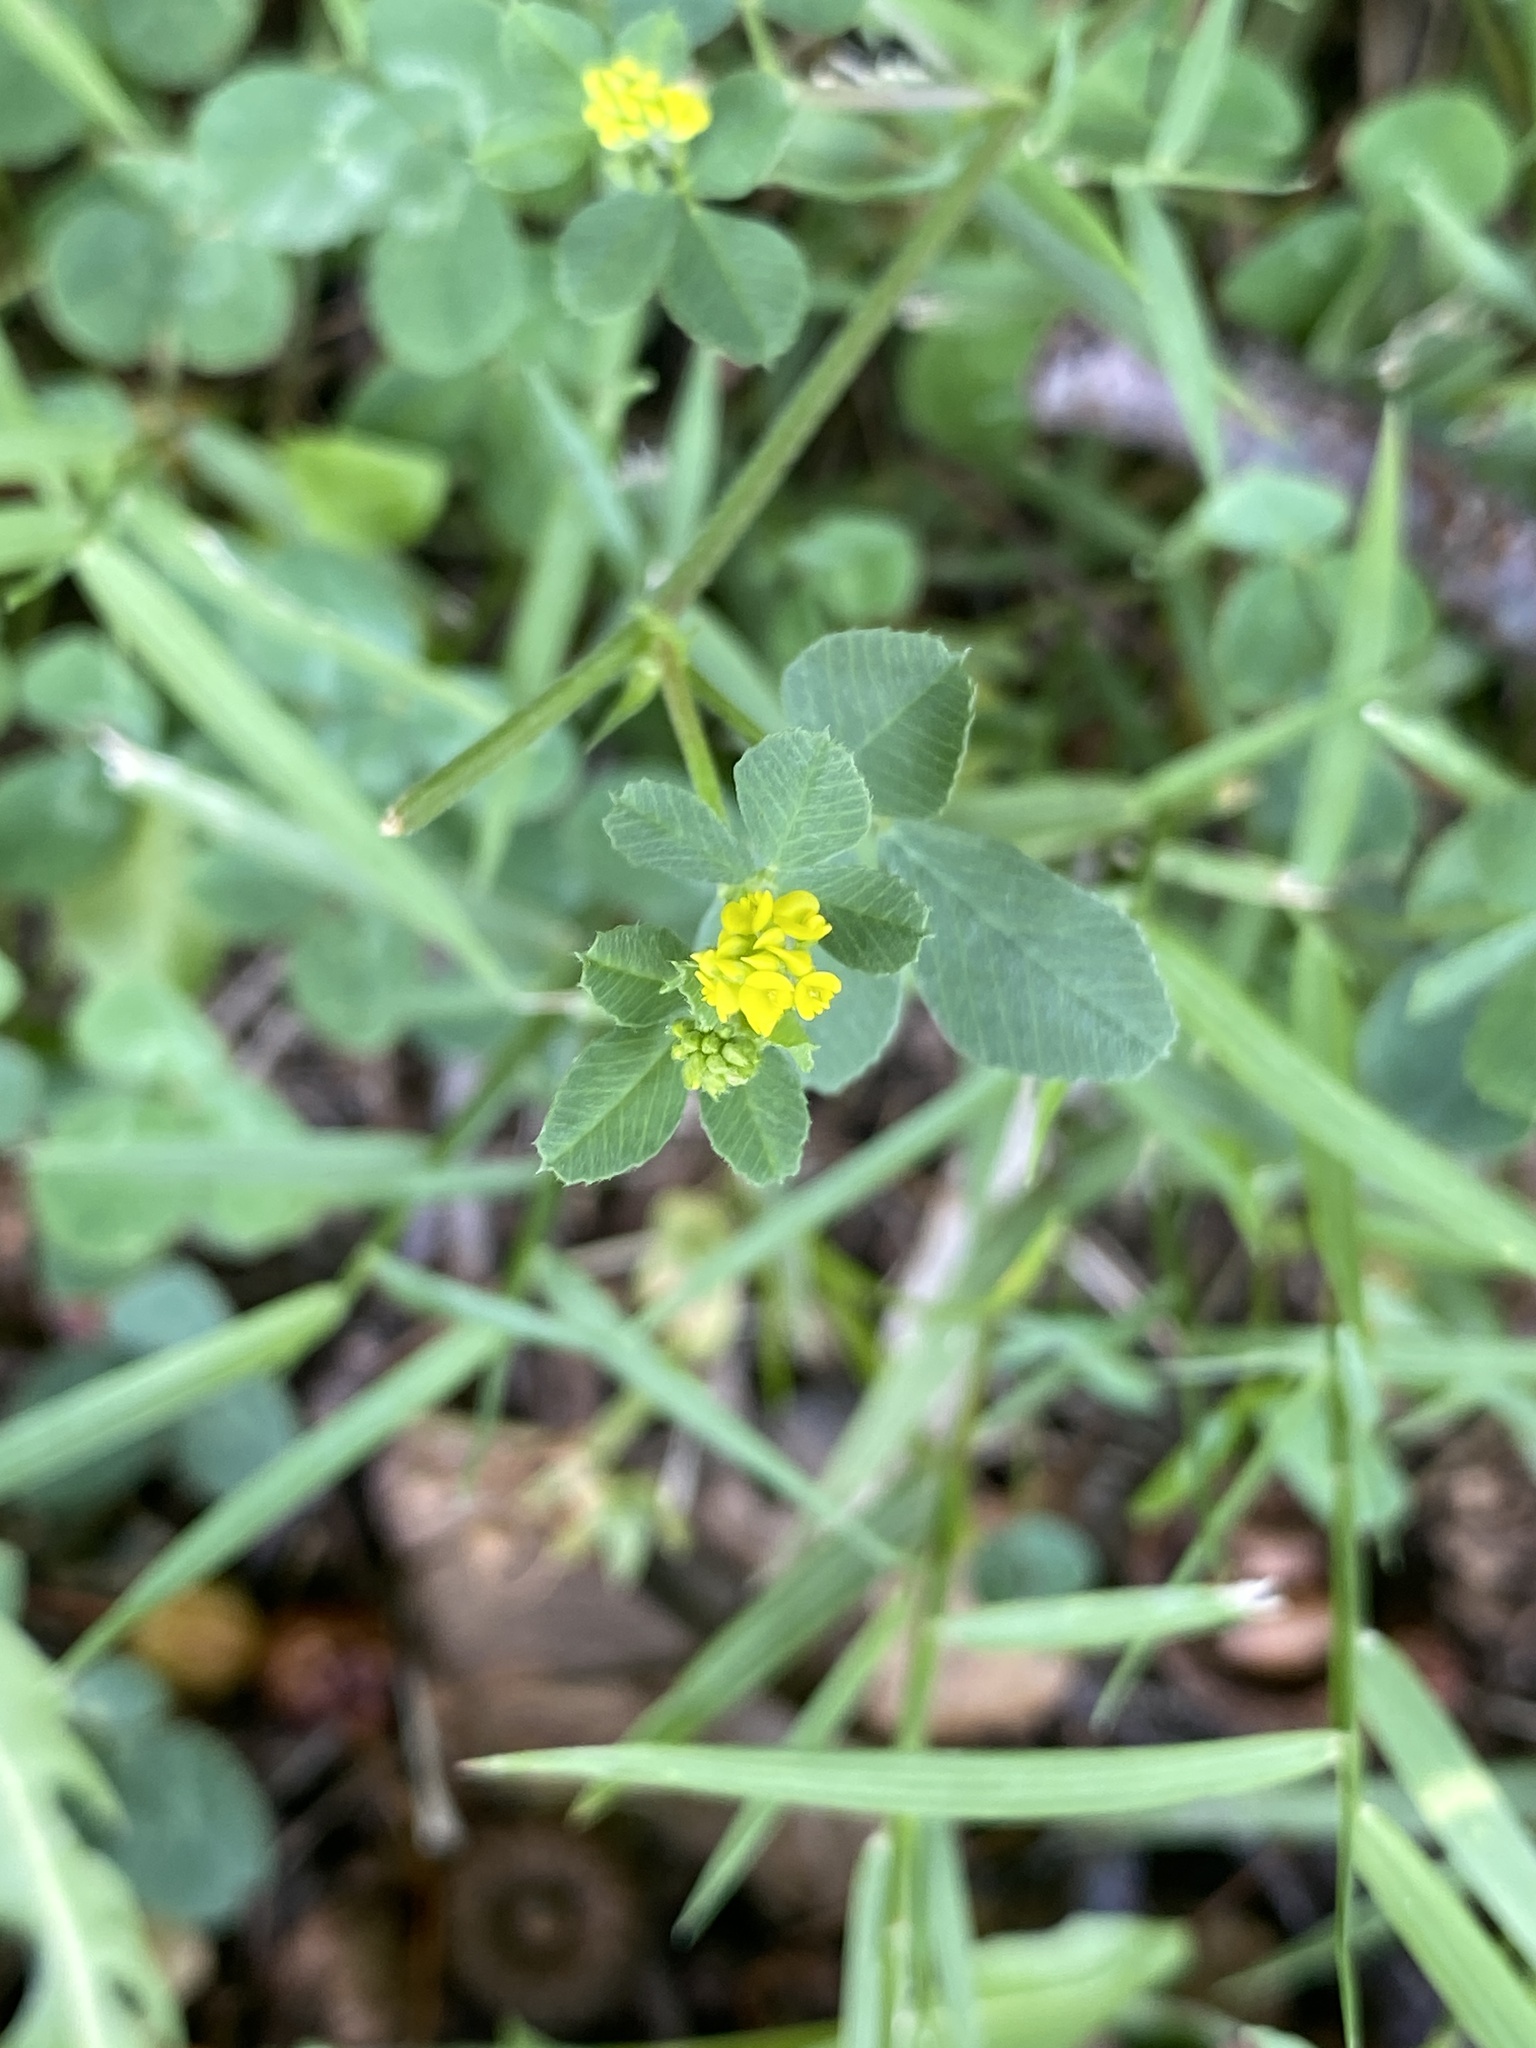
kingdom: Plantae
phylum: Tracheophyta
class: Magnoliopsida
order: Fabales
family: Fabaceae
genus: Medicago
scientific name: Medicago lupulina
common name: Black medick
